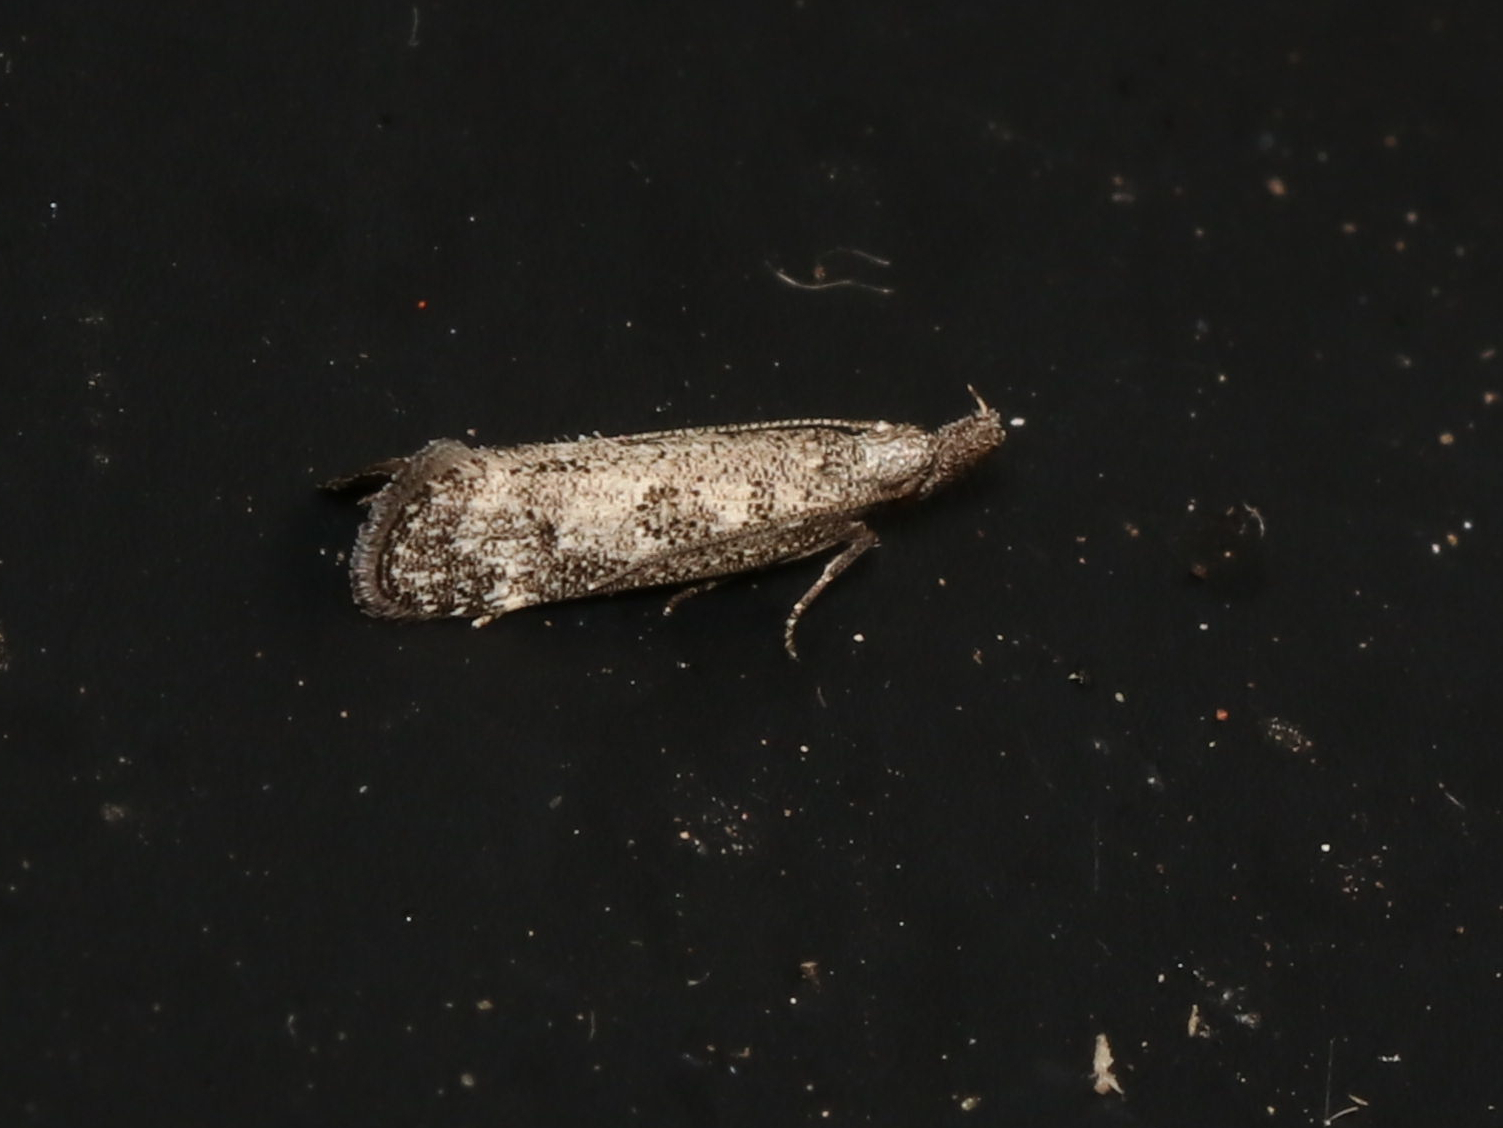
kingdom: Animalia
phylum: Arthropoda
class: Insecta
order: Lepidoptera
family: Gelechiidae
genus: Dichomeris
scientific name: Dichomeris inversella
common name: Inverse dichomeris moth
